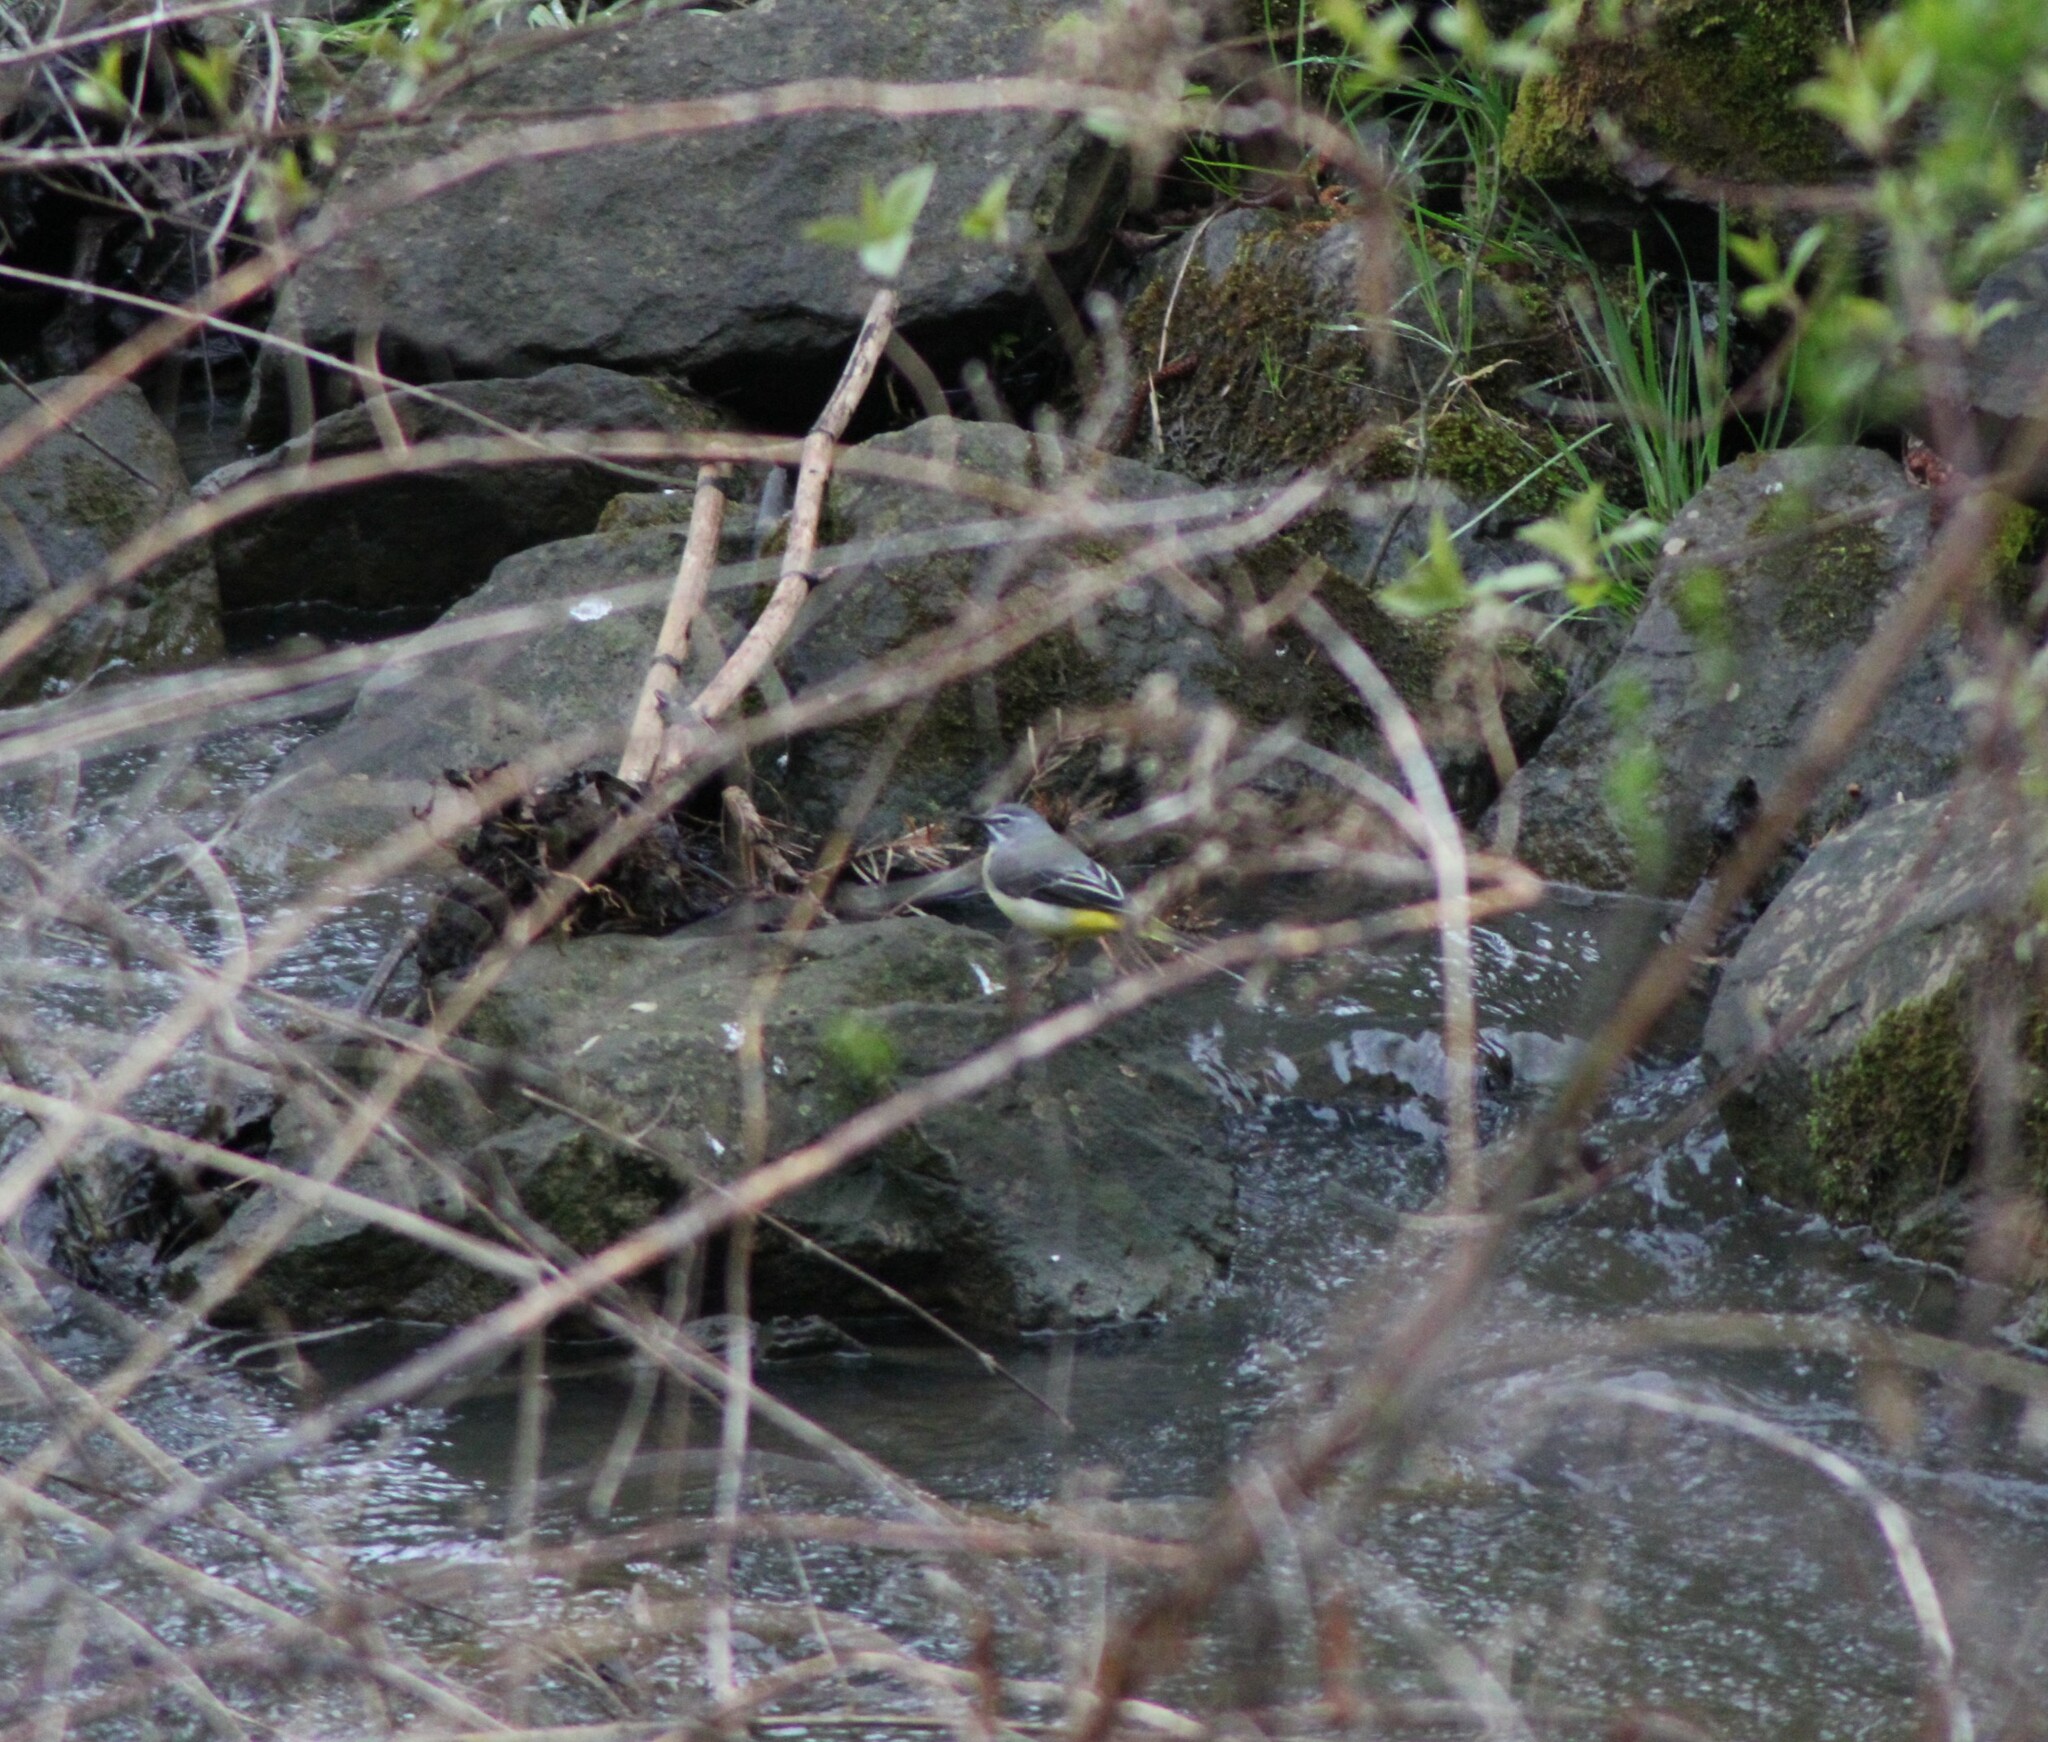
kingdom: Animalia
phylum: Chordata
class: Aves
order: Passeriformes
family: Motacillidae
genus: Motacilla
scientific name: Motacilla cinerea
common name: Grey wagtail
